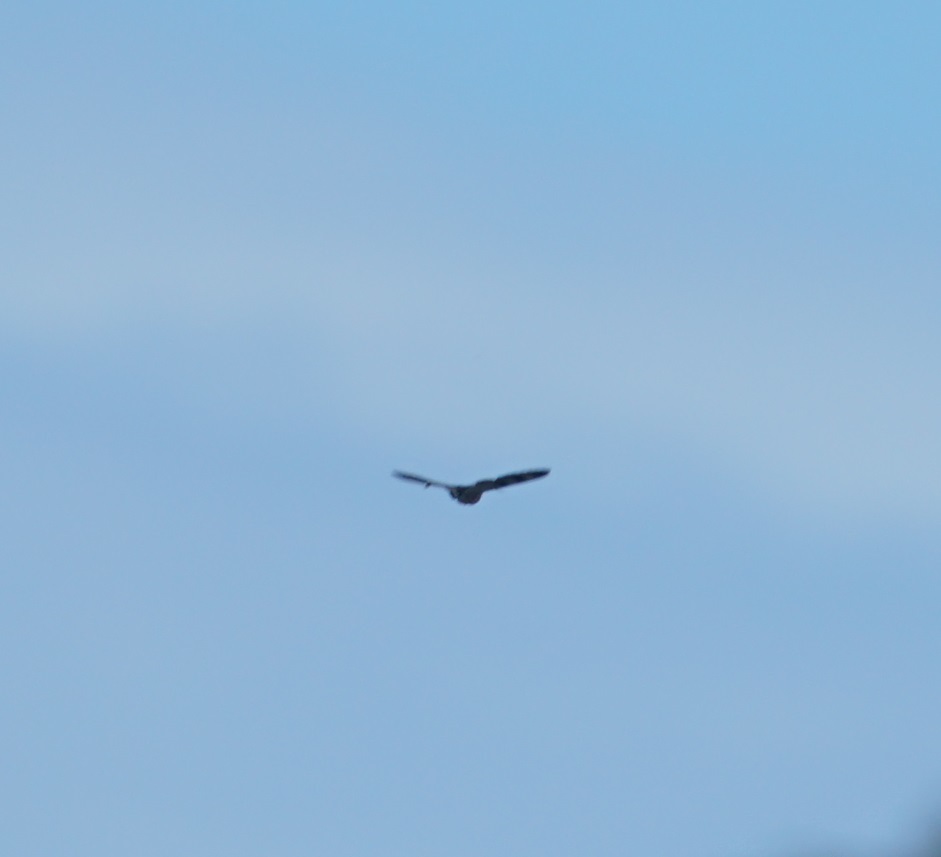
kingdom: Animalia
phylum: Arthropoda
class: Insecta
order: Lepidoptera
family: Uraniidae
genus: Alcides
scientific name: Alcides metaurus
